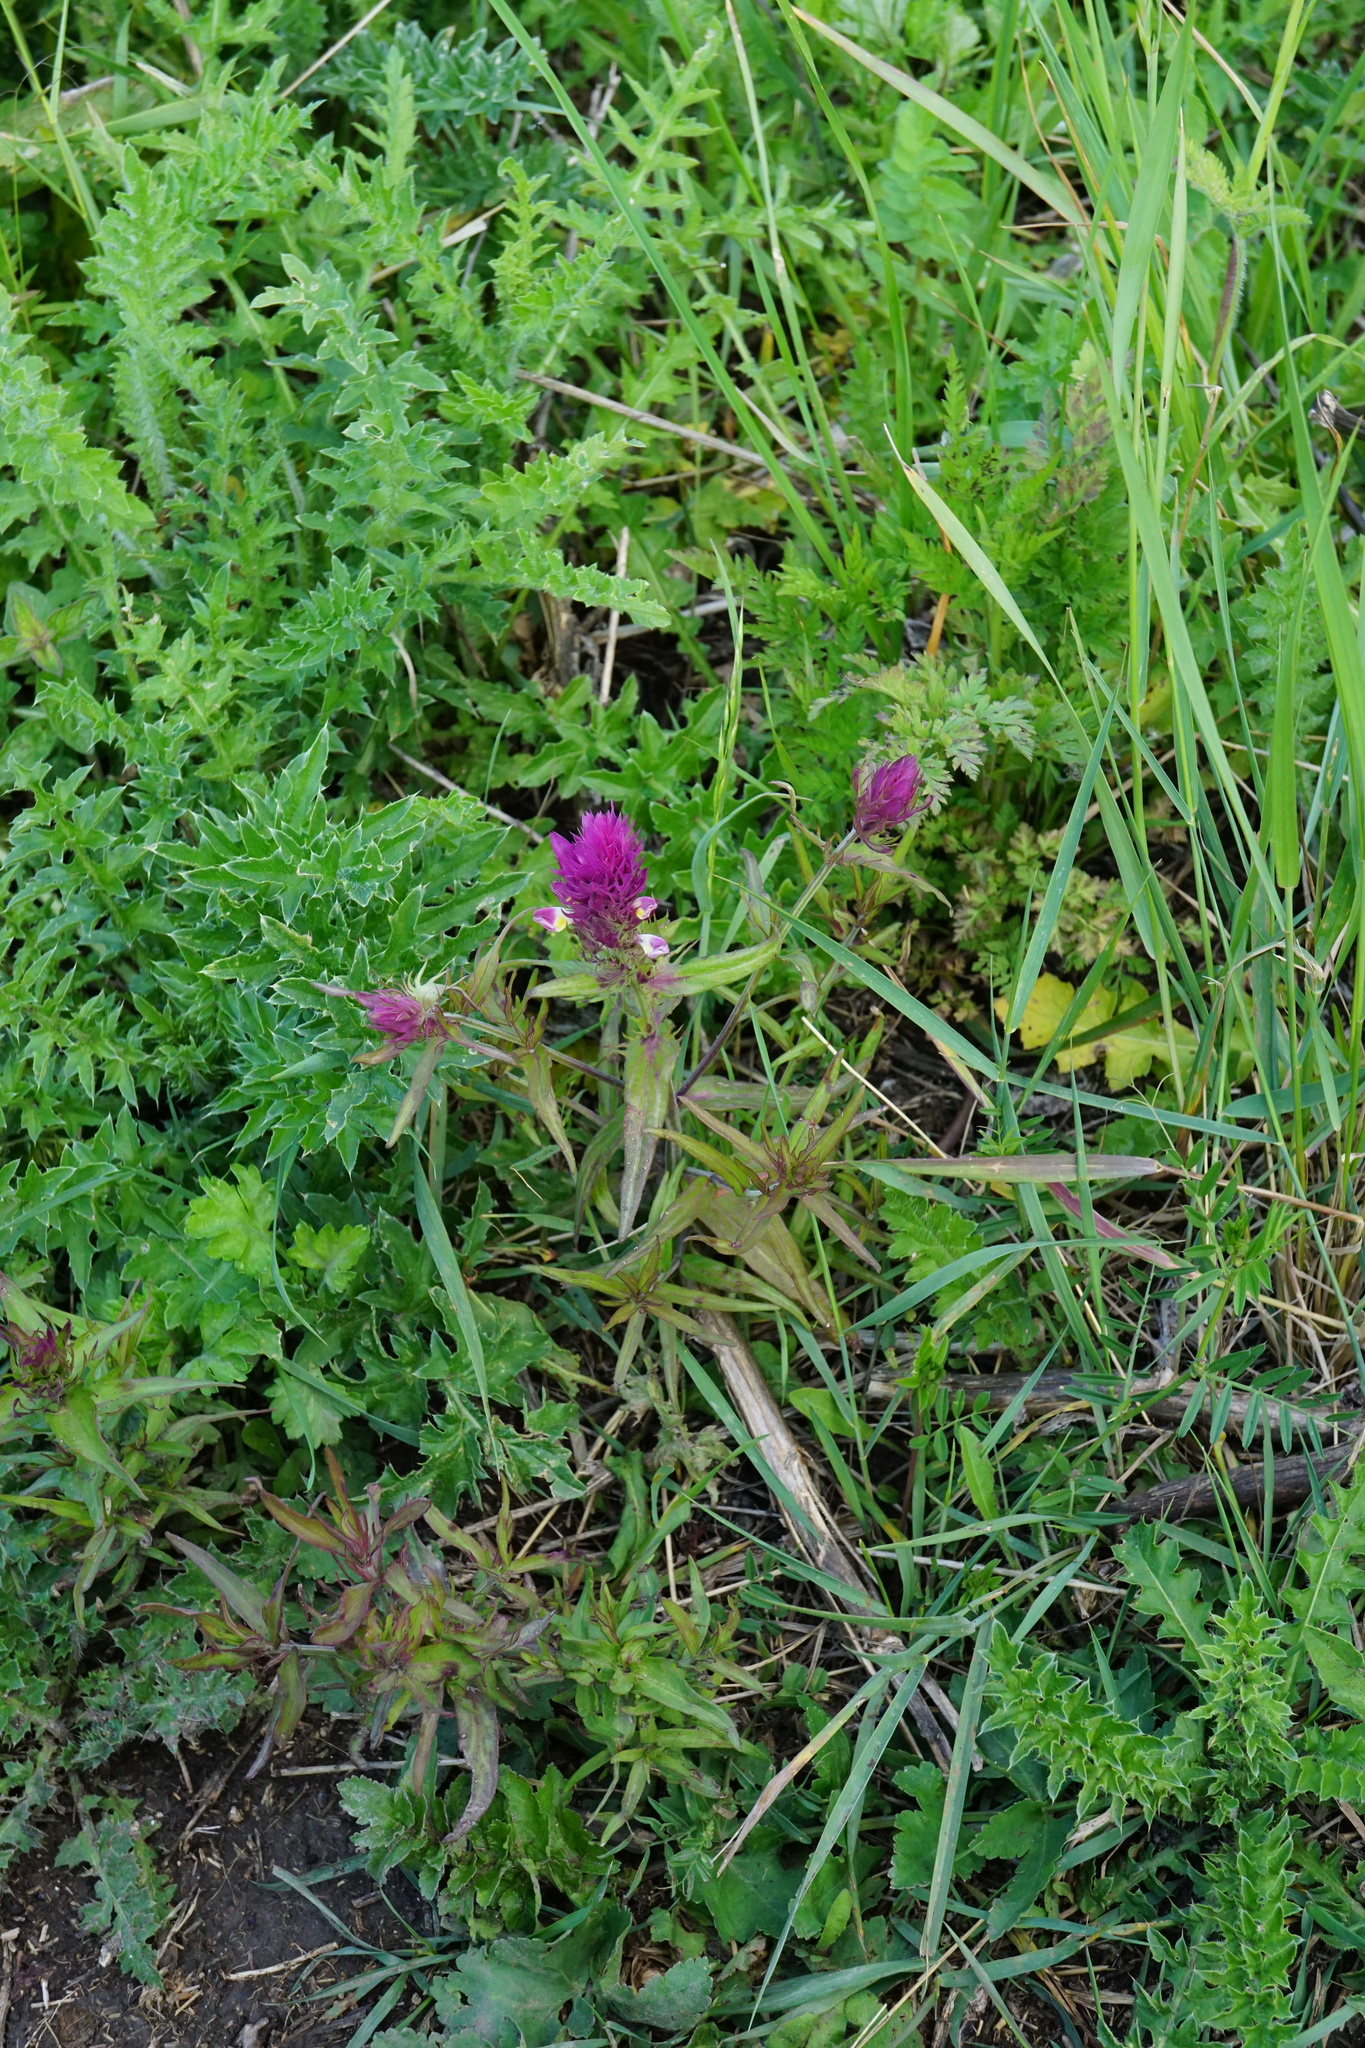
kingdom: Plantae
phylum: Tracheophyta
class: Magnoliopsida
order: Lamiales
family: Orobanchaceae
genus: Melampyrum
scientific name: Melampyrum arvense
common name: Field cow-wheat
